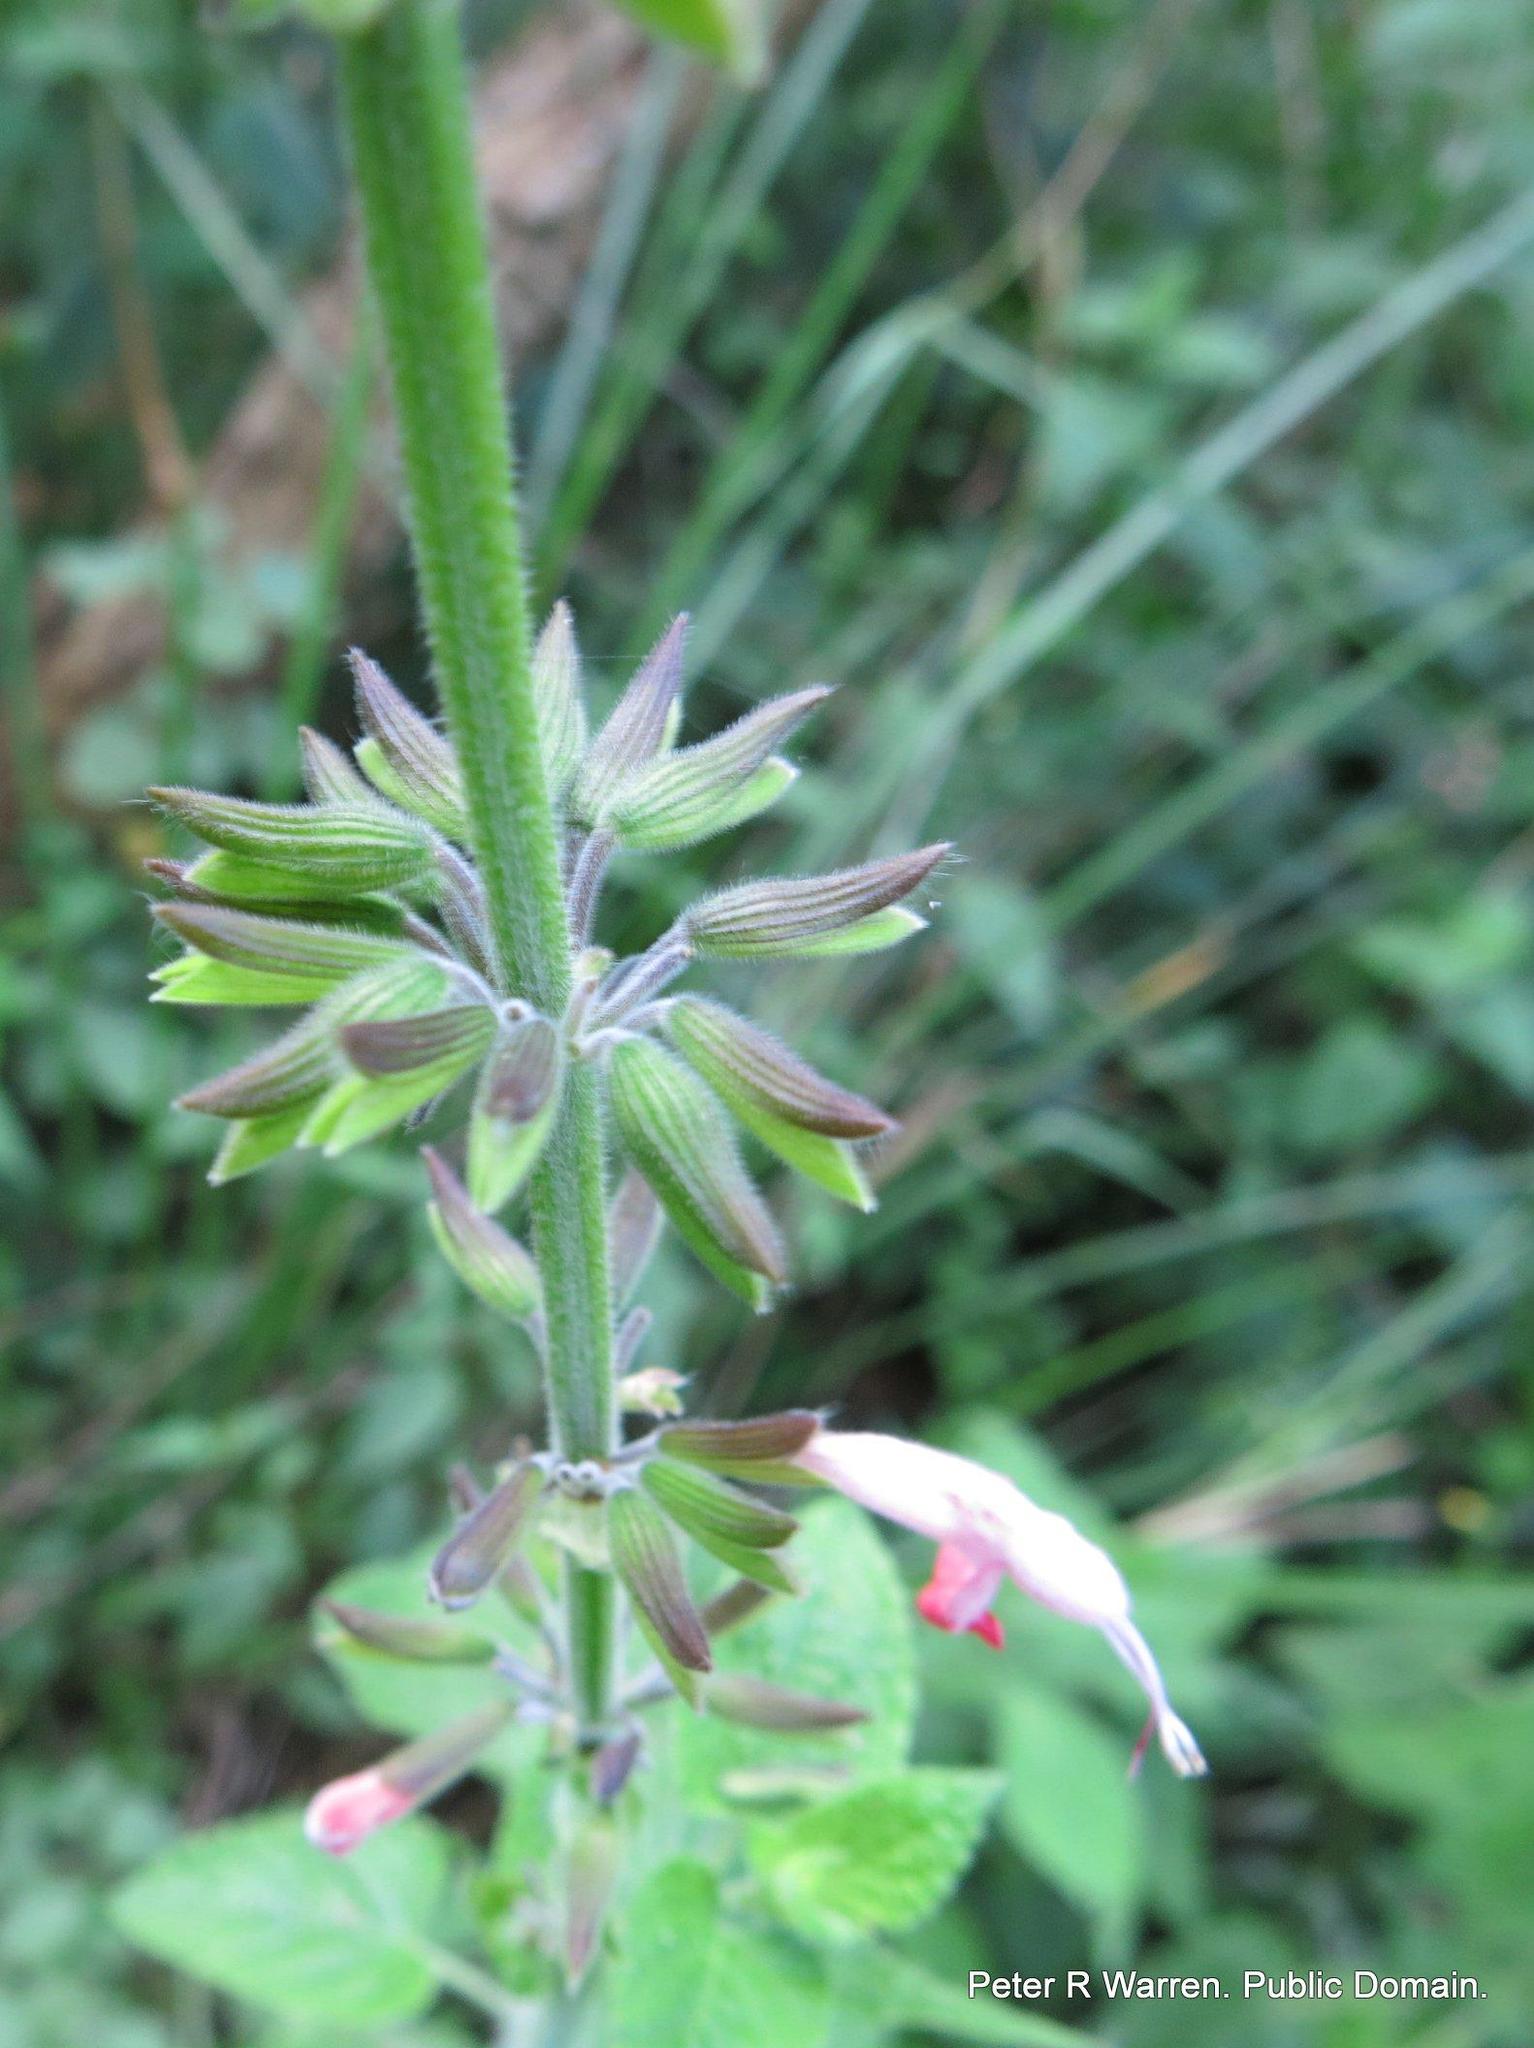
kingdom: Plantae
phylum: Tracheophyta
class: Magnoliopsida
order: Lamiales
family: Lamiaceae
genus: Salvia
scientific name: Salvia coccinea
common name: Blood sage
